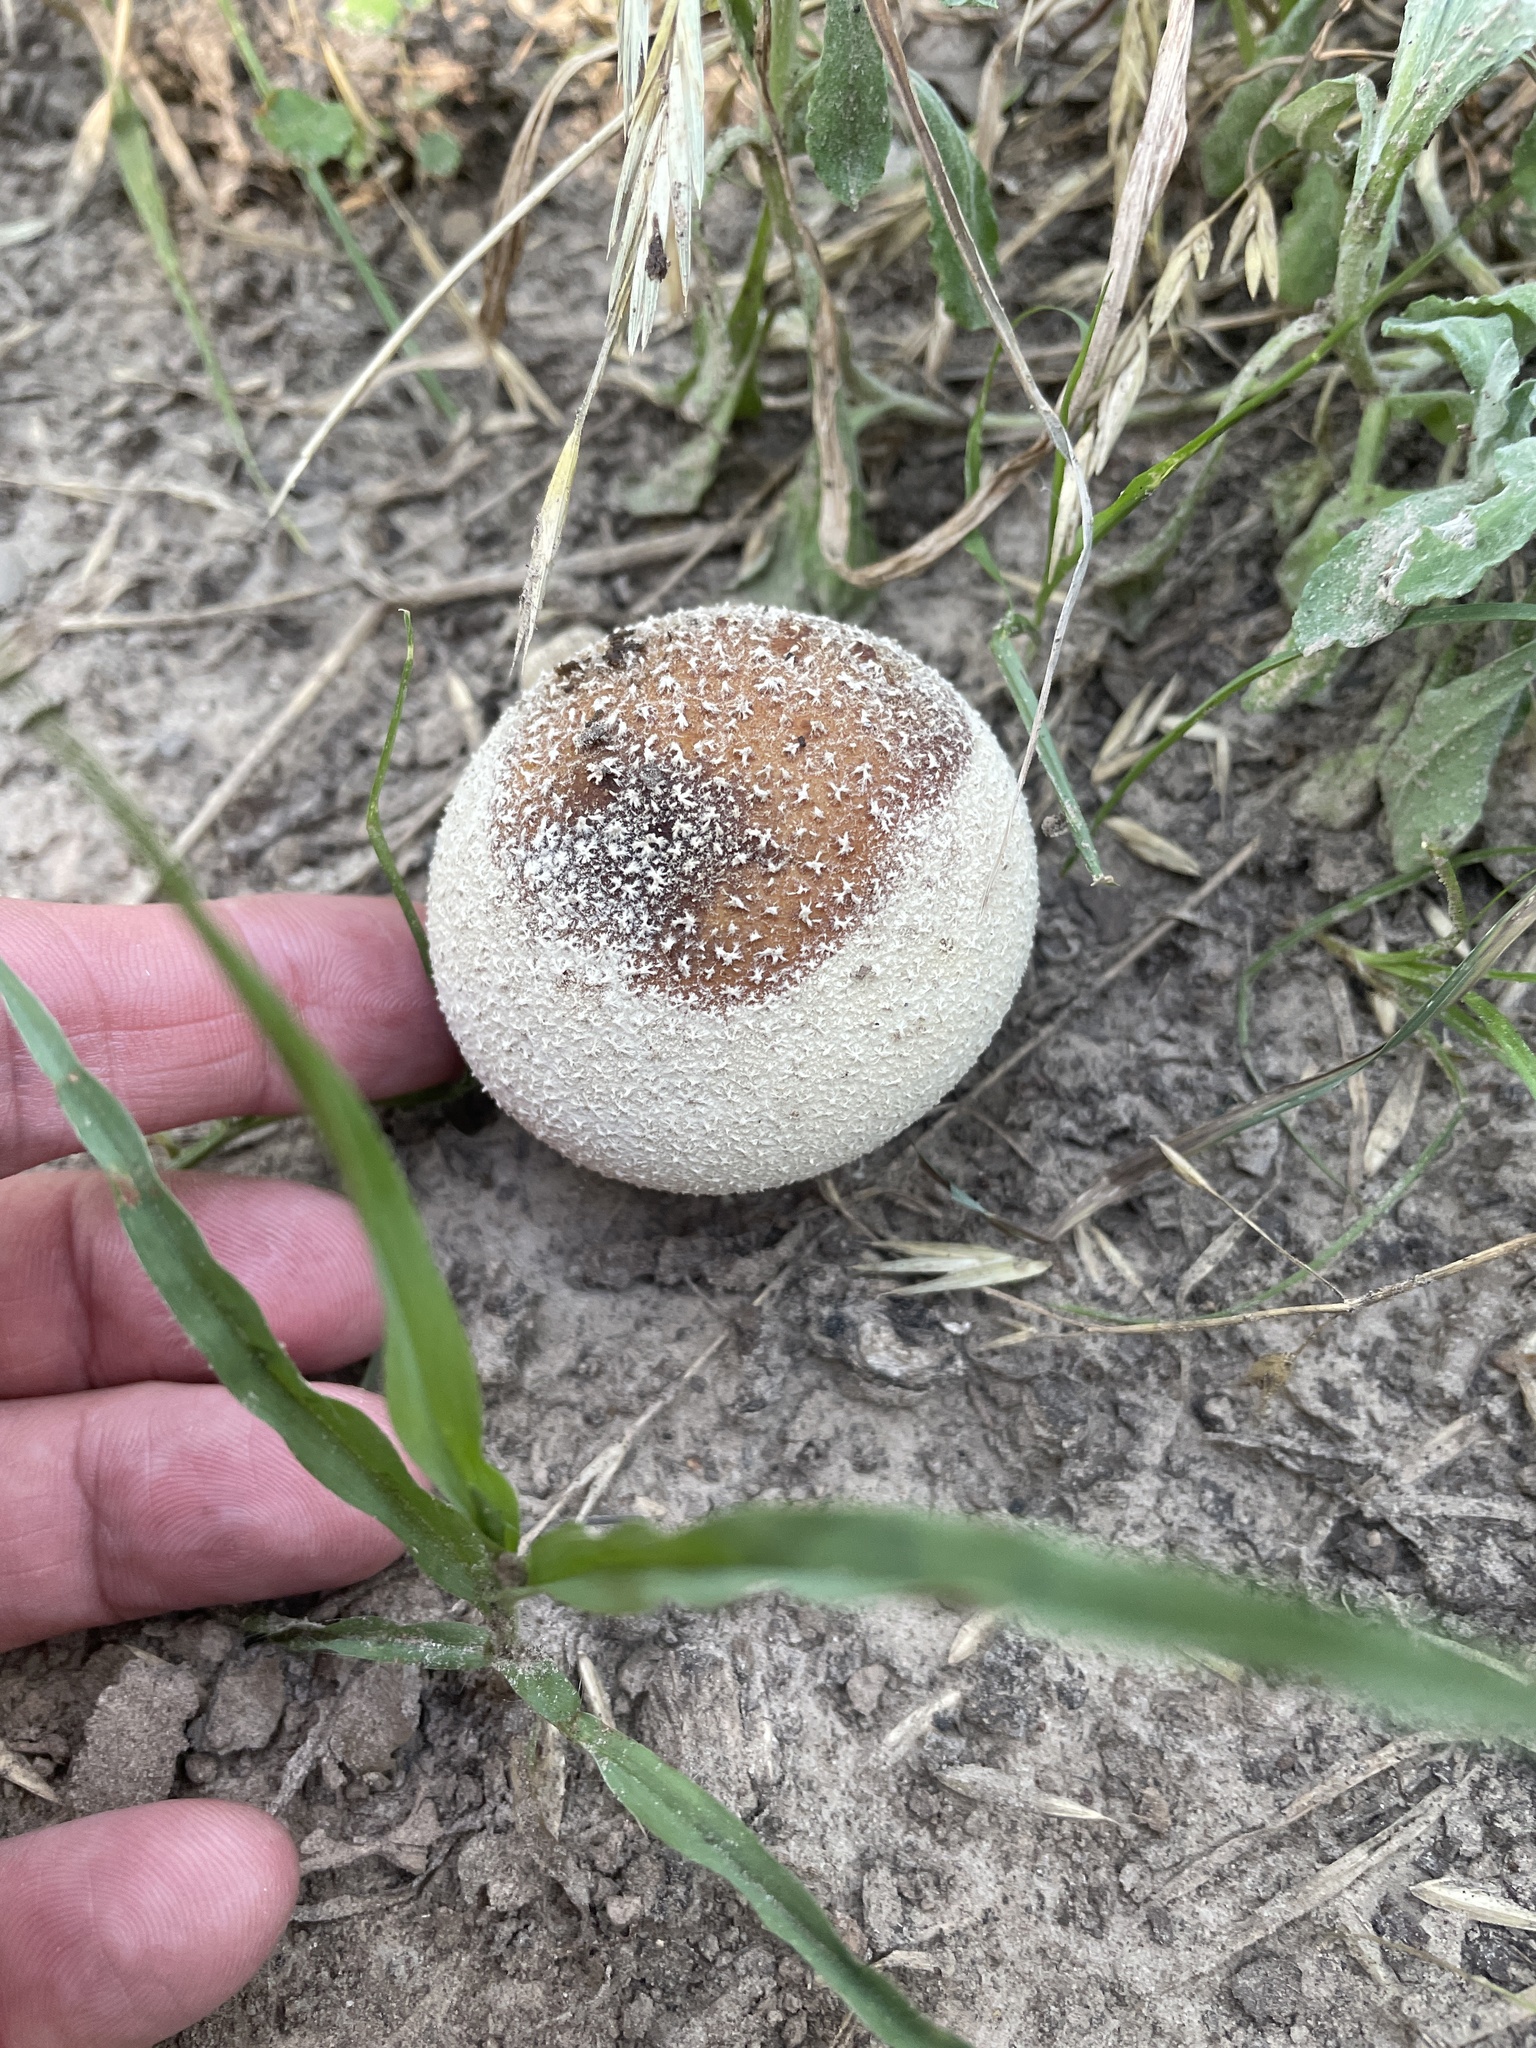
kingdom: Fungi
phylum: Basidiomycota
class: Agaricomycetes
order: Agaricales
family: Agaricaceae
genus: Lycoperdon
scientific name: Lycoperdon marginatum
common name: Peeling puffball
